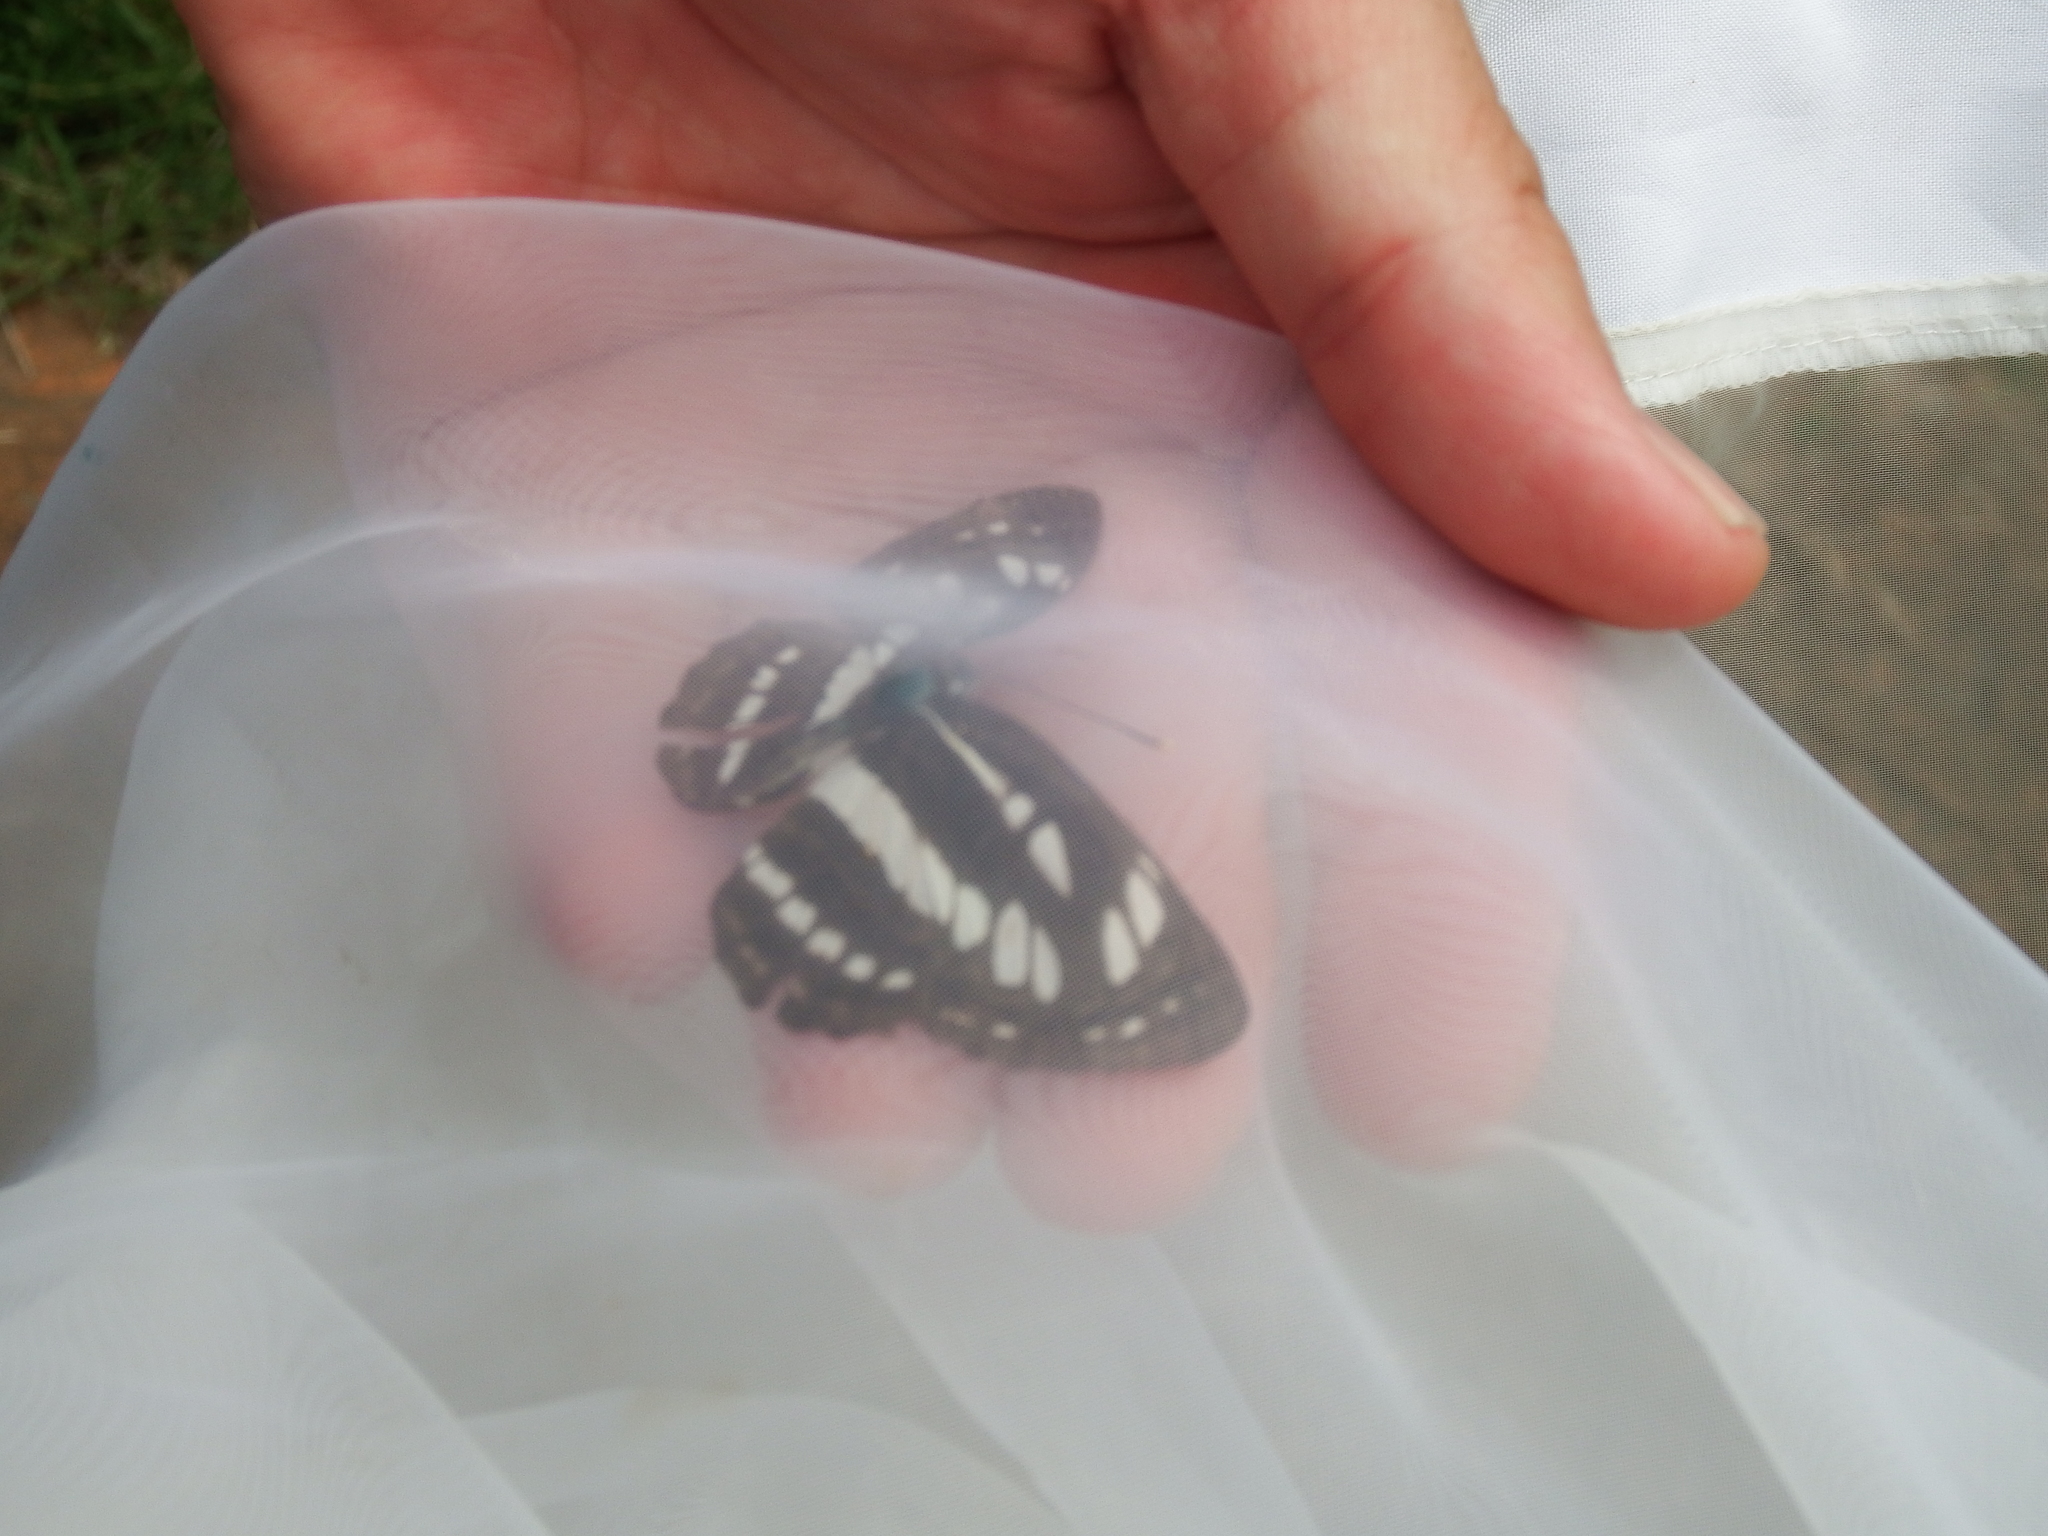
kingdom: Animalia
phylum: Arthropoda
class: Insecta
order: Lepidoptera
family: Nymphalidae
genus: Neptis
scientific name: Neptis hylas
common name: Common sailer
